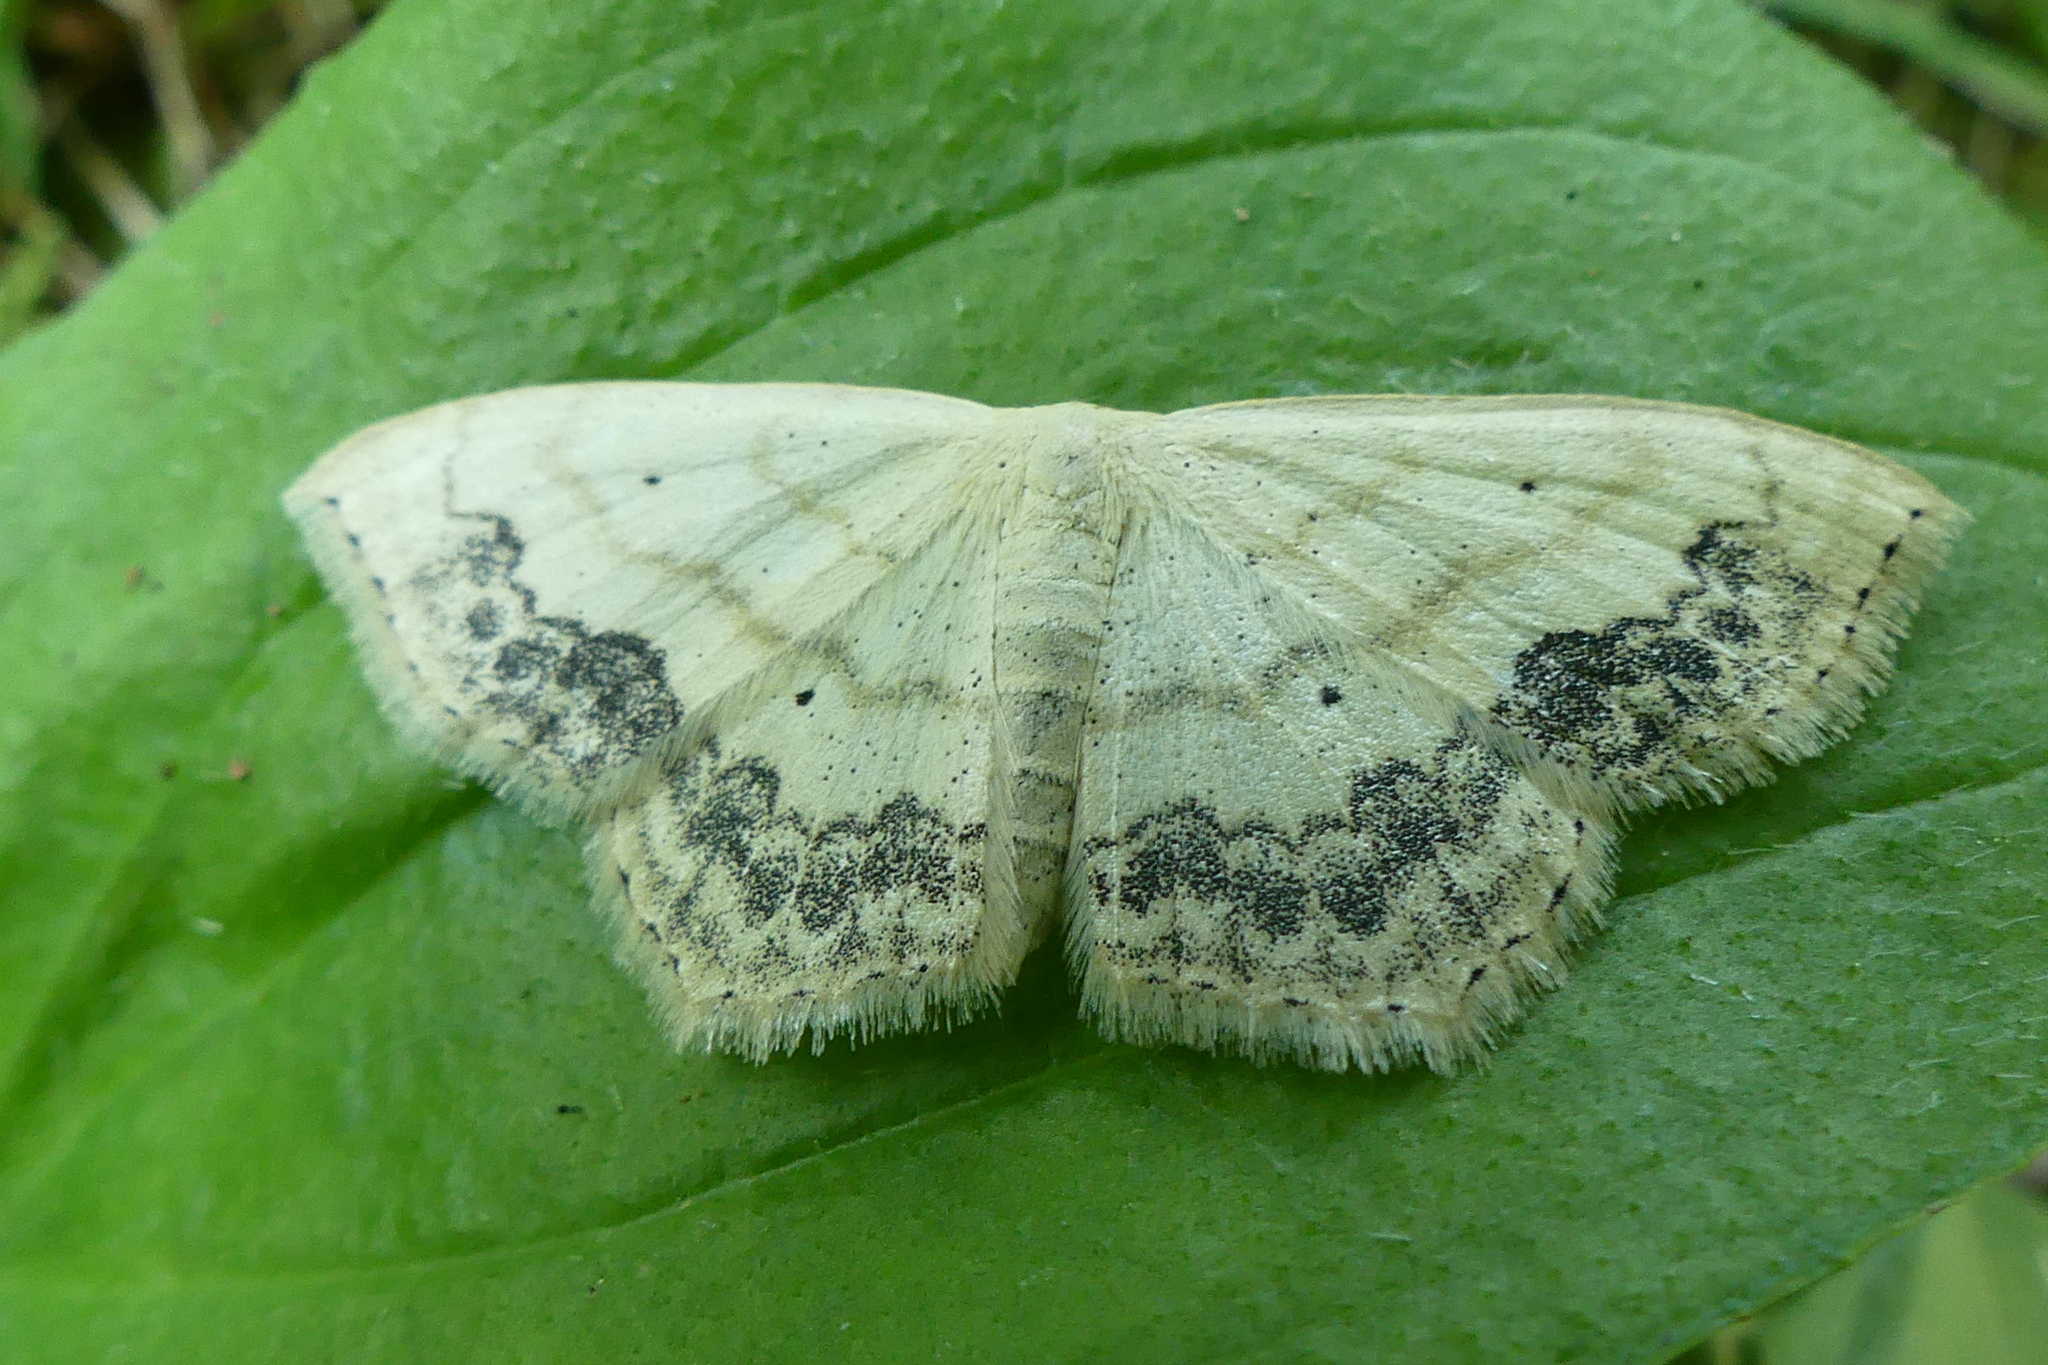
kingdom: Animalia
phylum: Arthropoda
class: Insecta
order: Lepidoptera
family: Geometridae
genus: Scopula
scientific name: Scopula limboundata
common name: Large lace border
